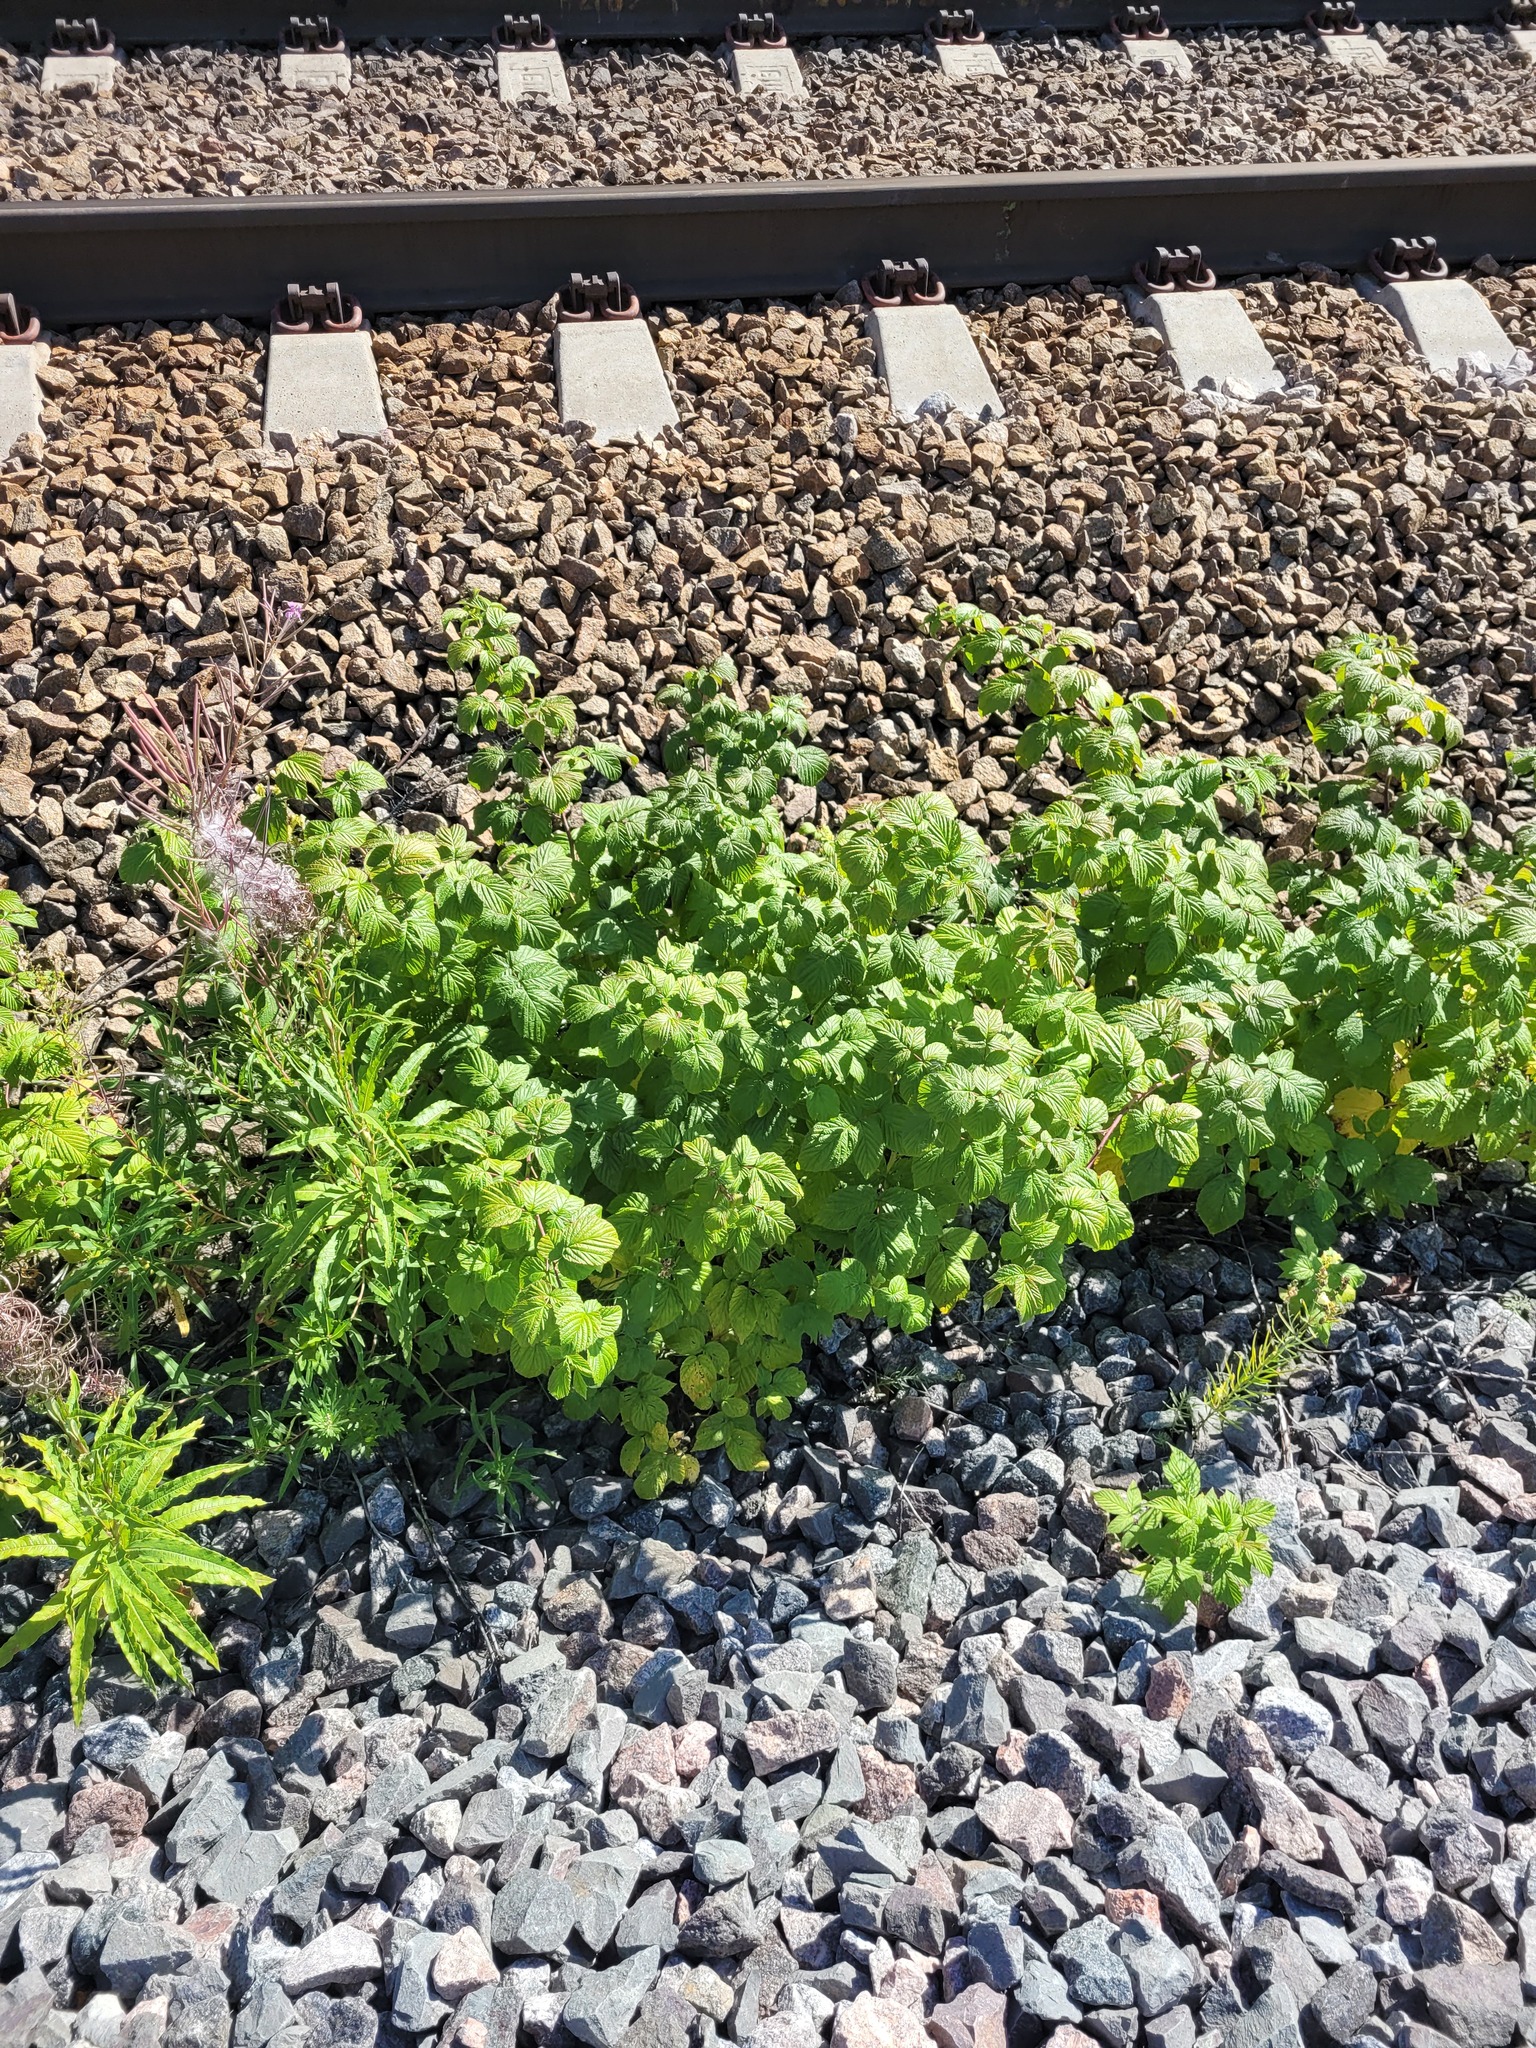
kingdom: Plantae
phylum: Tracheophyta
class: Magnoliopsida
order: Rosales
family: Rosaceae
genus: Rubus
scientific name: Rubus idaeus
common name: Raspberry
